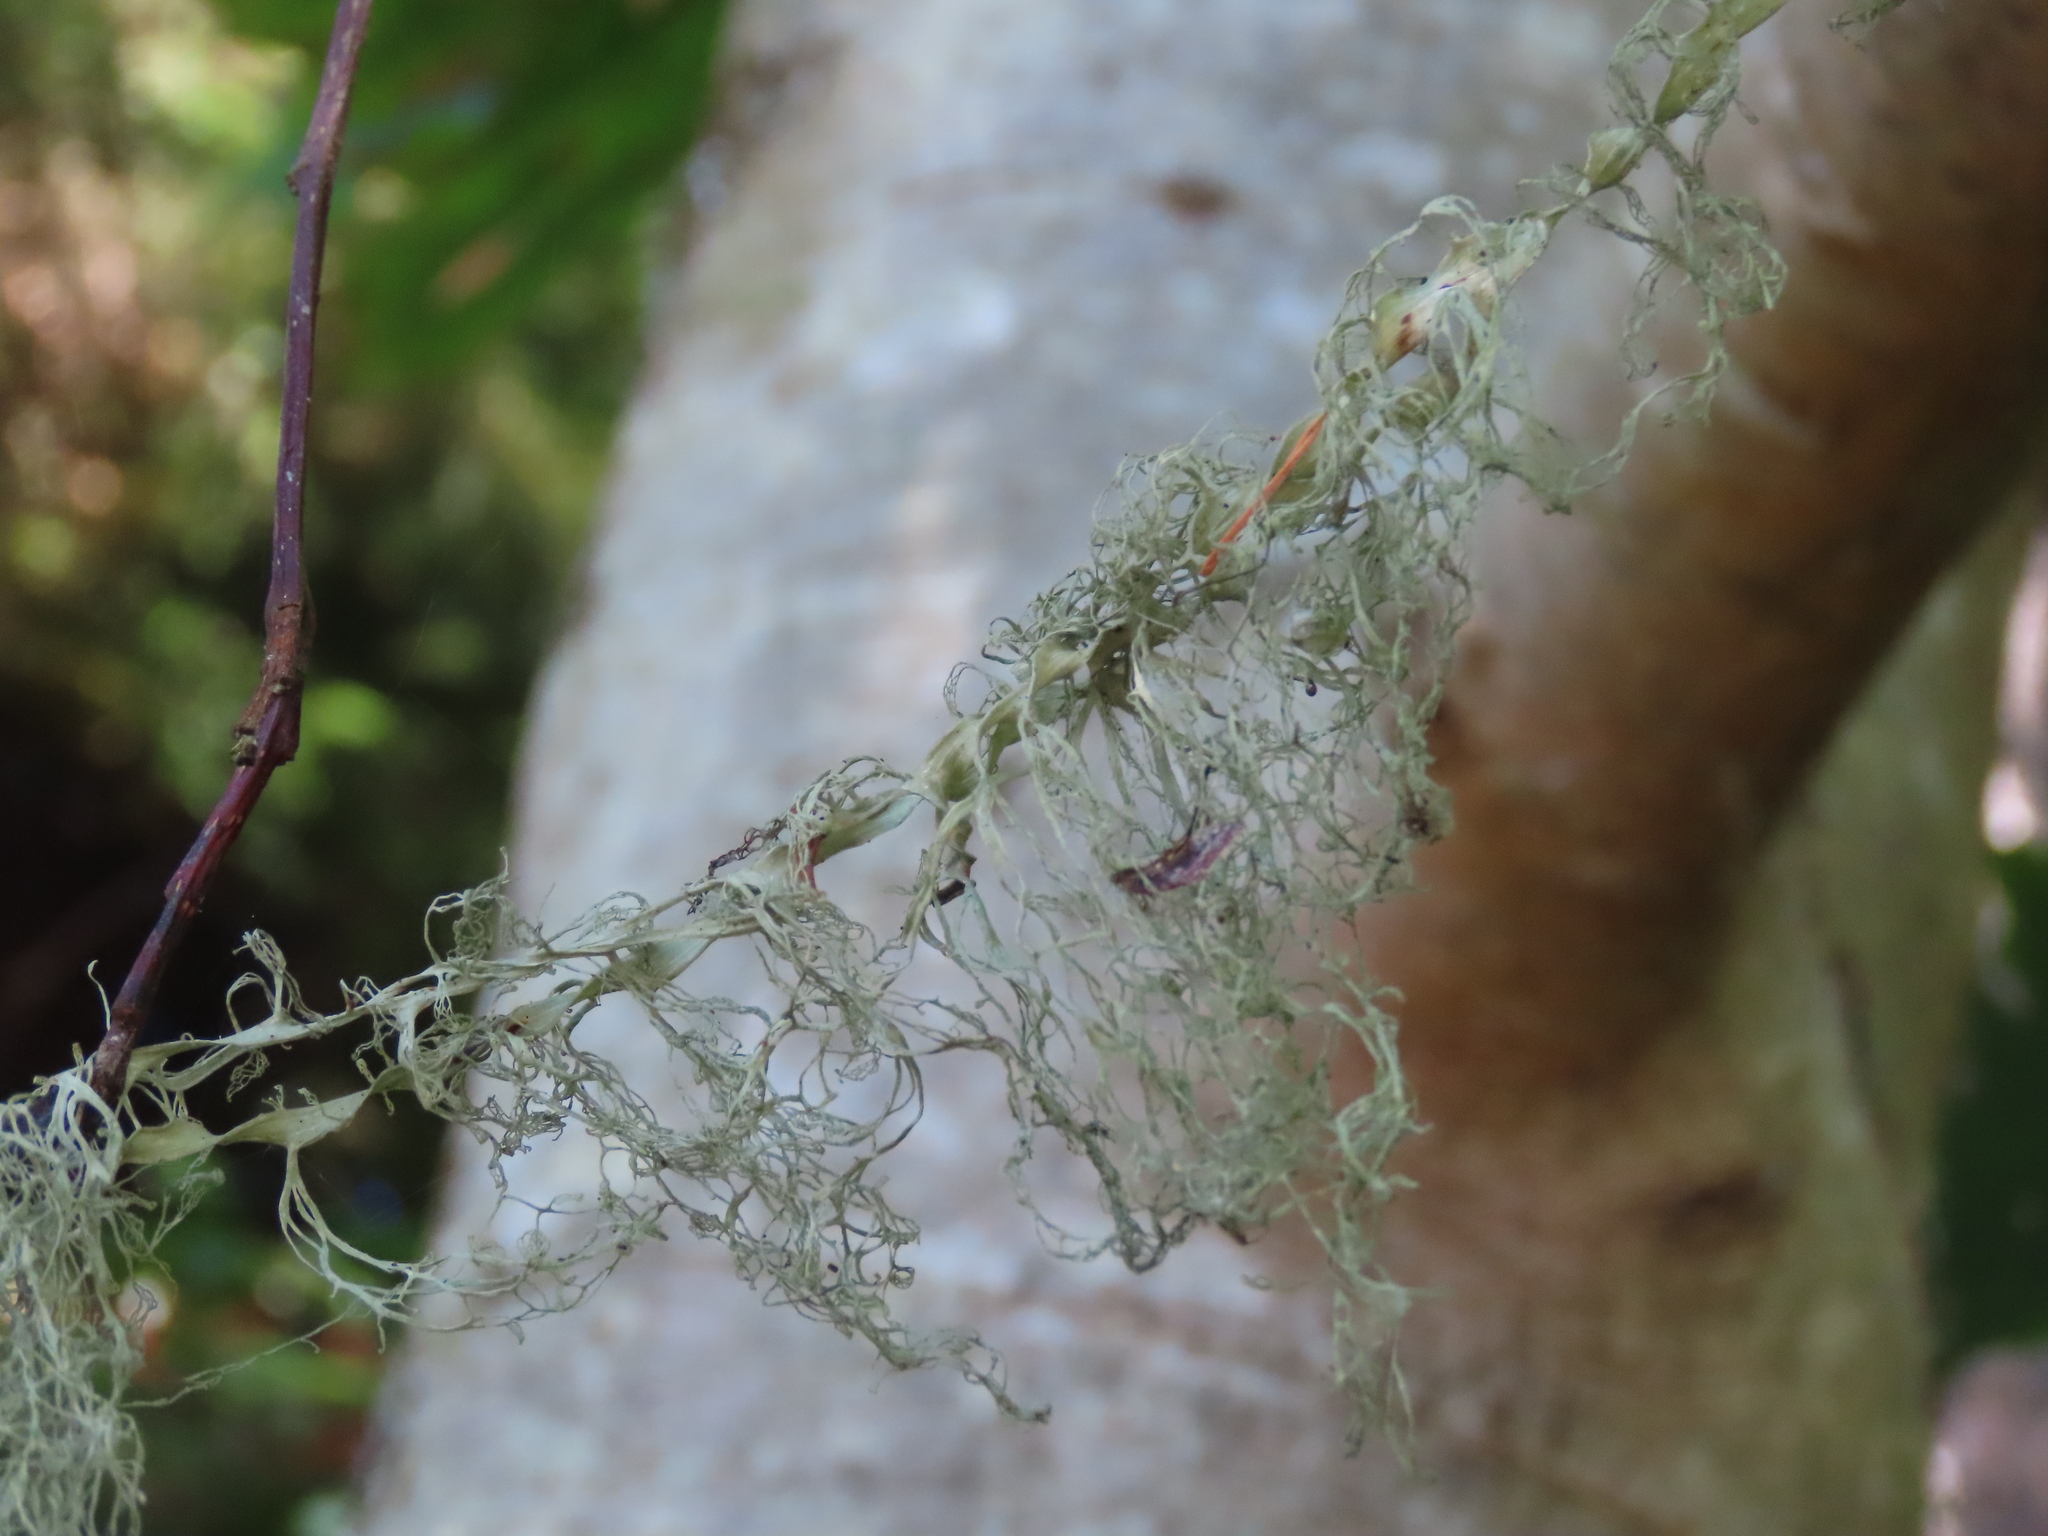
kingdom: Fungi
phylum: Ascomycota
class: Lecanoromycetes
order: Lecanorales
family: Ramalinaceae
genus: Ramalina
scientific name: Ramalina menziesii
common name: Lace lichen
